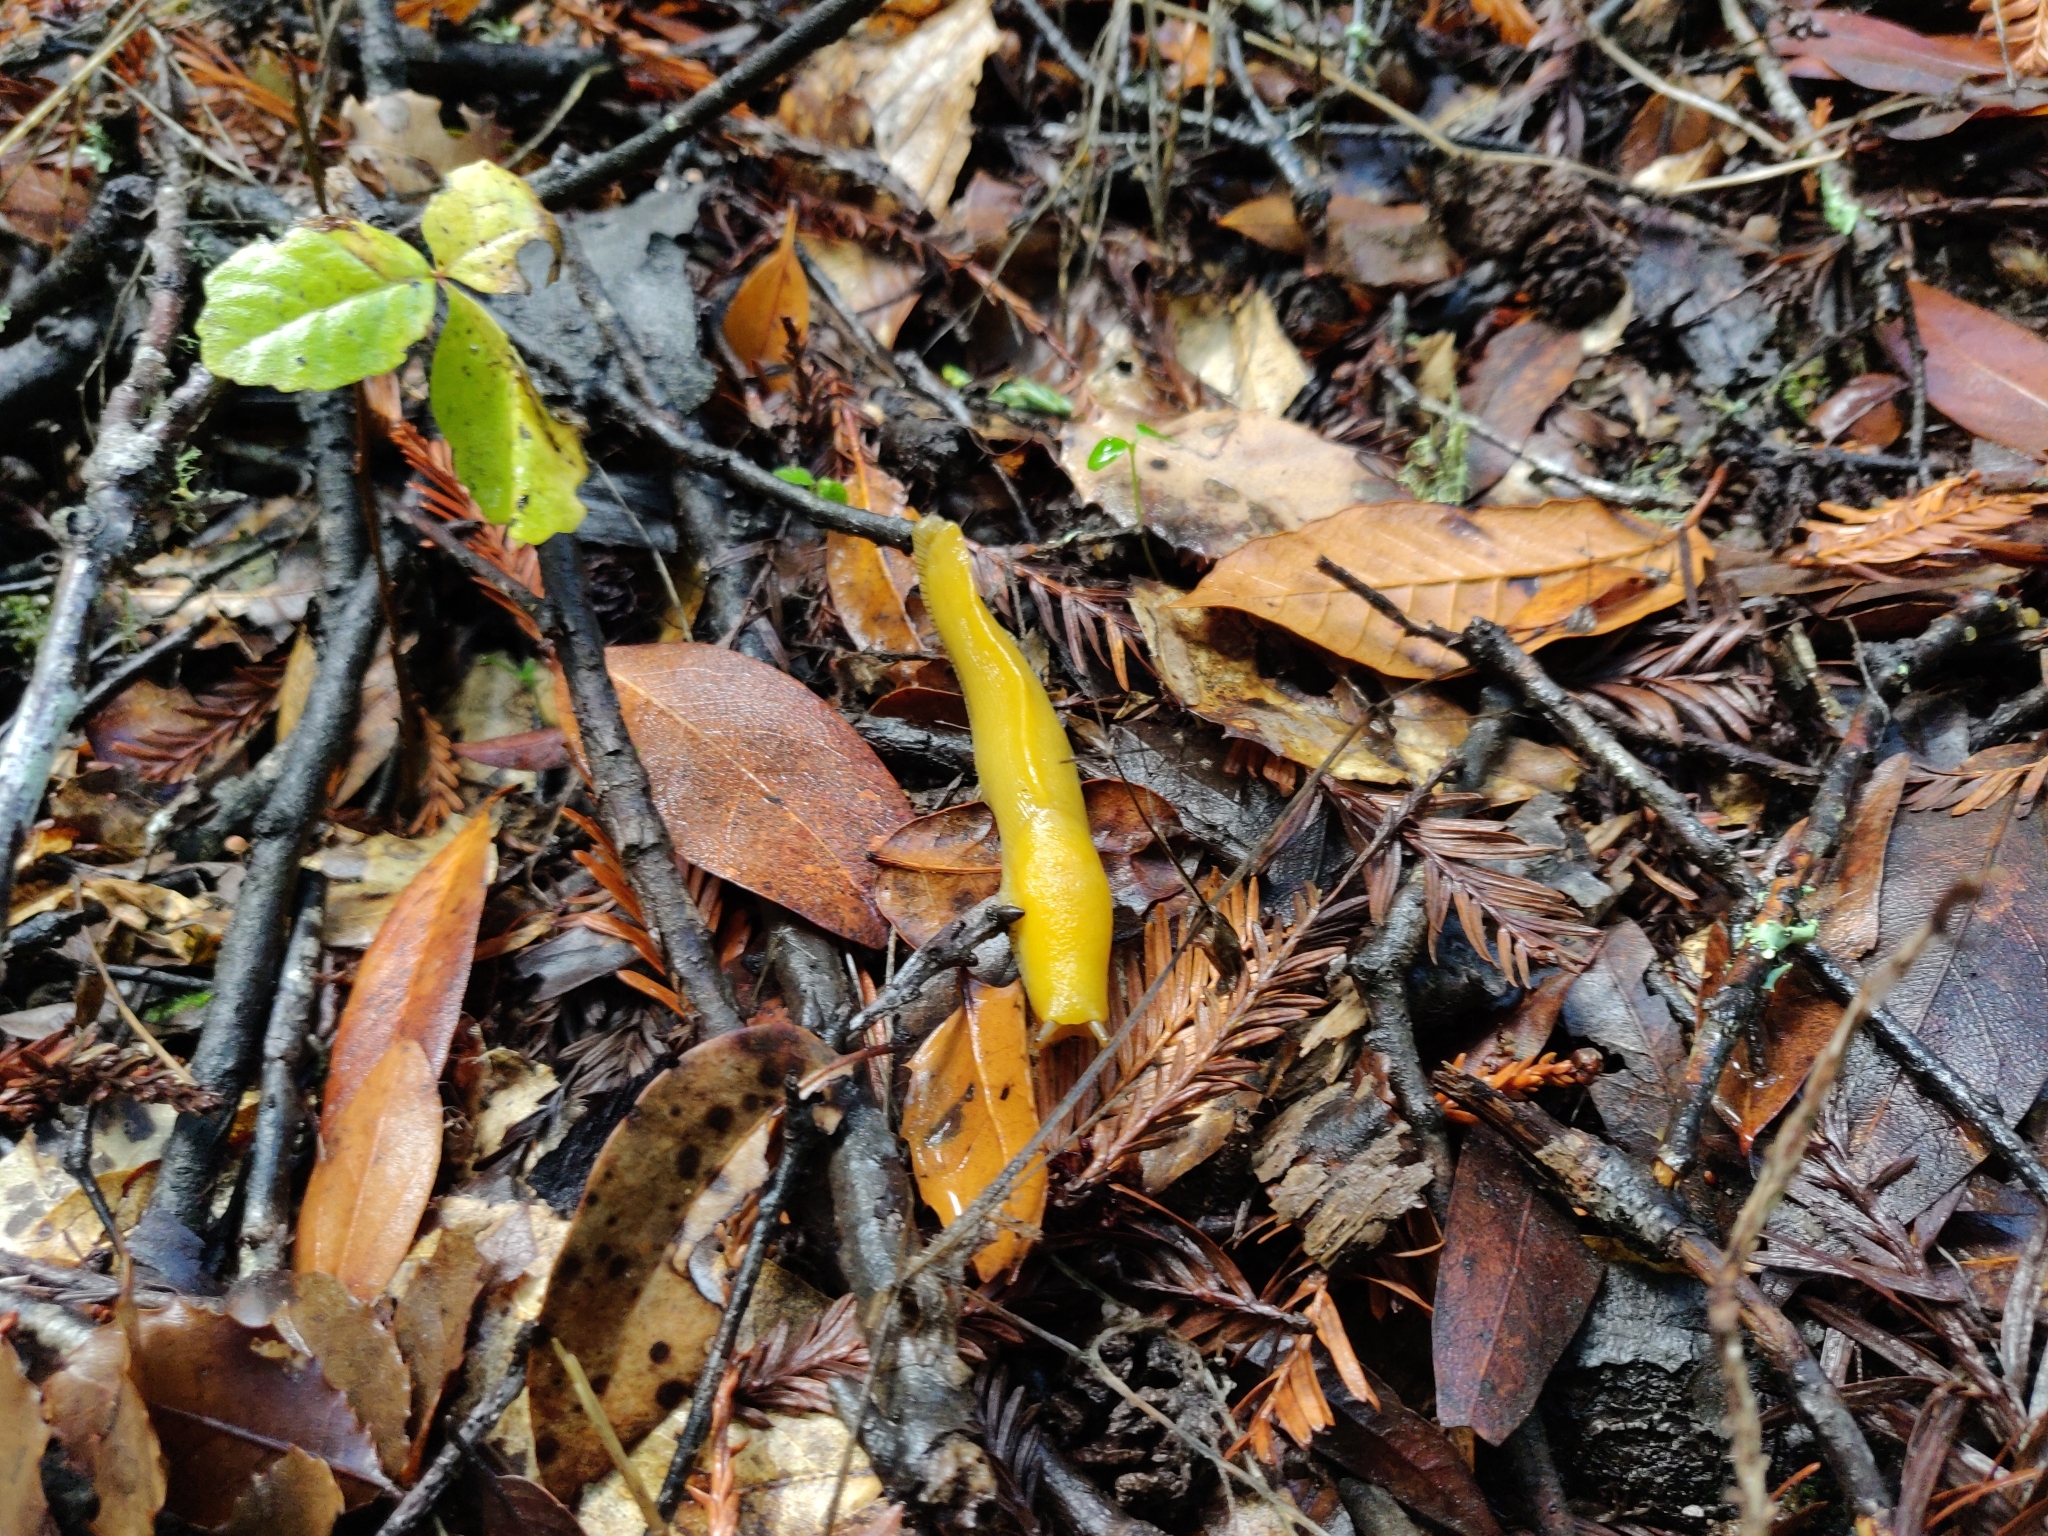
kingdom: Animalia
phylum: Mollusca
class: Gastropoda
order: Stylommatophora
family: Ariolimacidae
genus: Ariolimax
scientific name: Ariolimax californicus
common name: California banana slug
